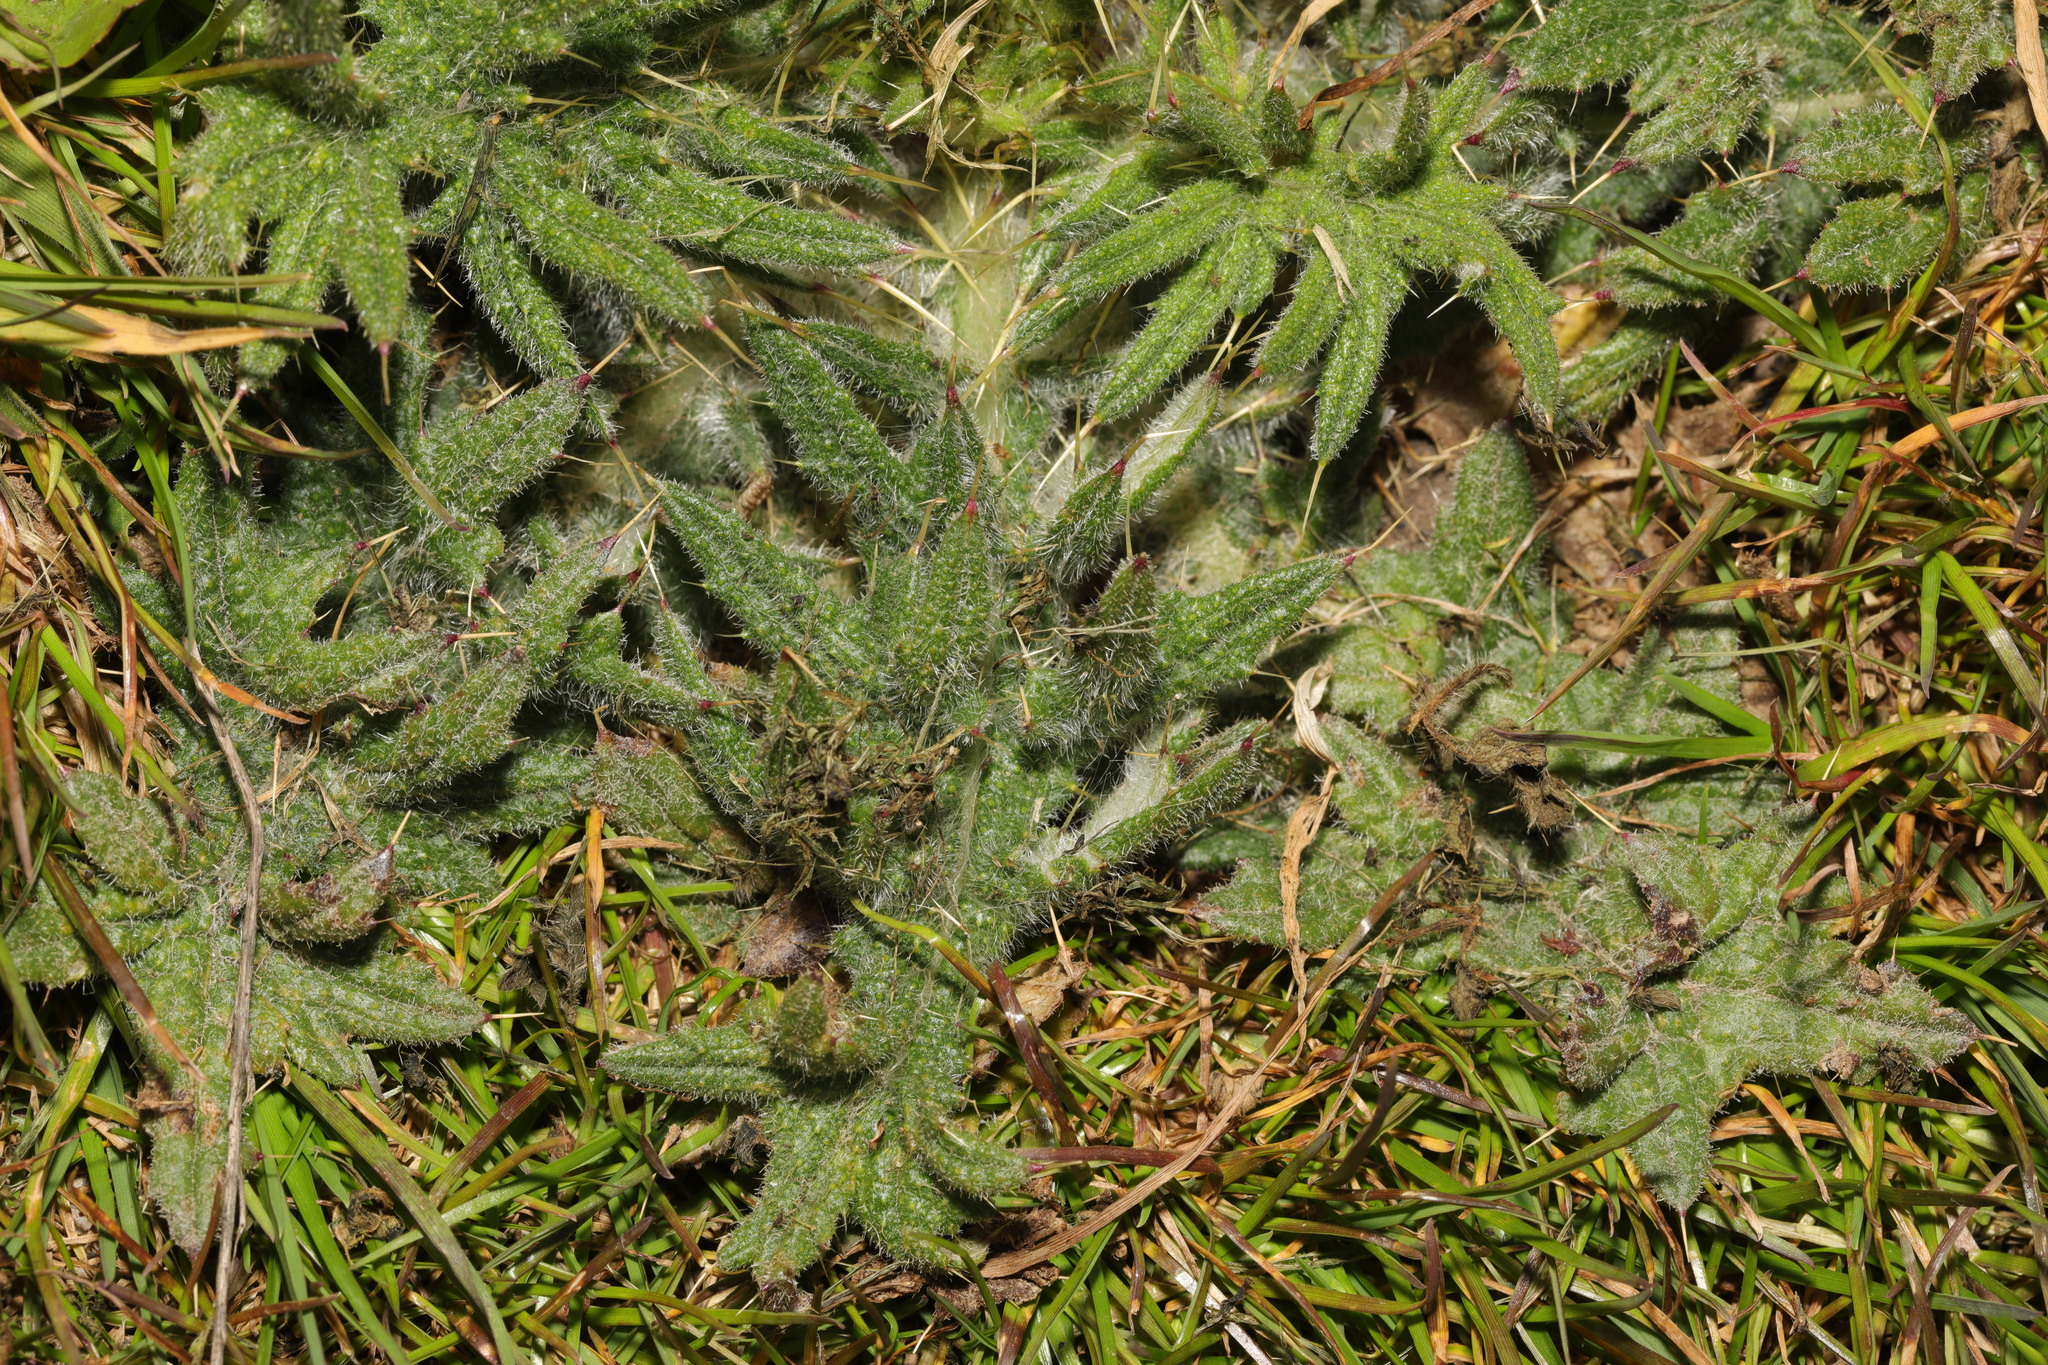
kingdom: Plantae
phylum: Tracheophyta
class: Magnoliopsida
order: Asterales
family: Asteraceae
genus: Cirsium
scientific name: Cirsium vulgare
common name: Bull thistle
